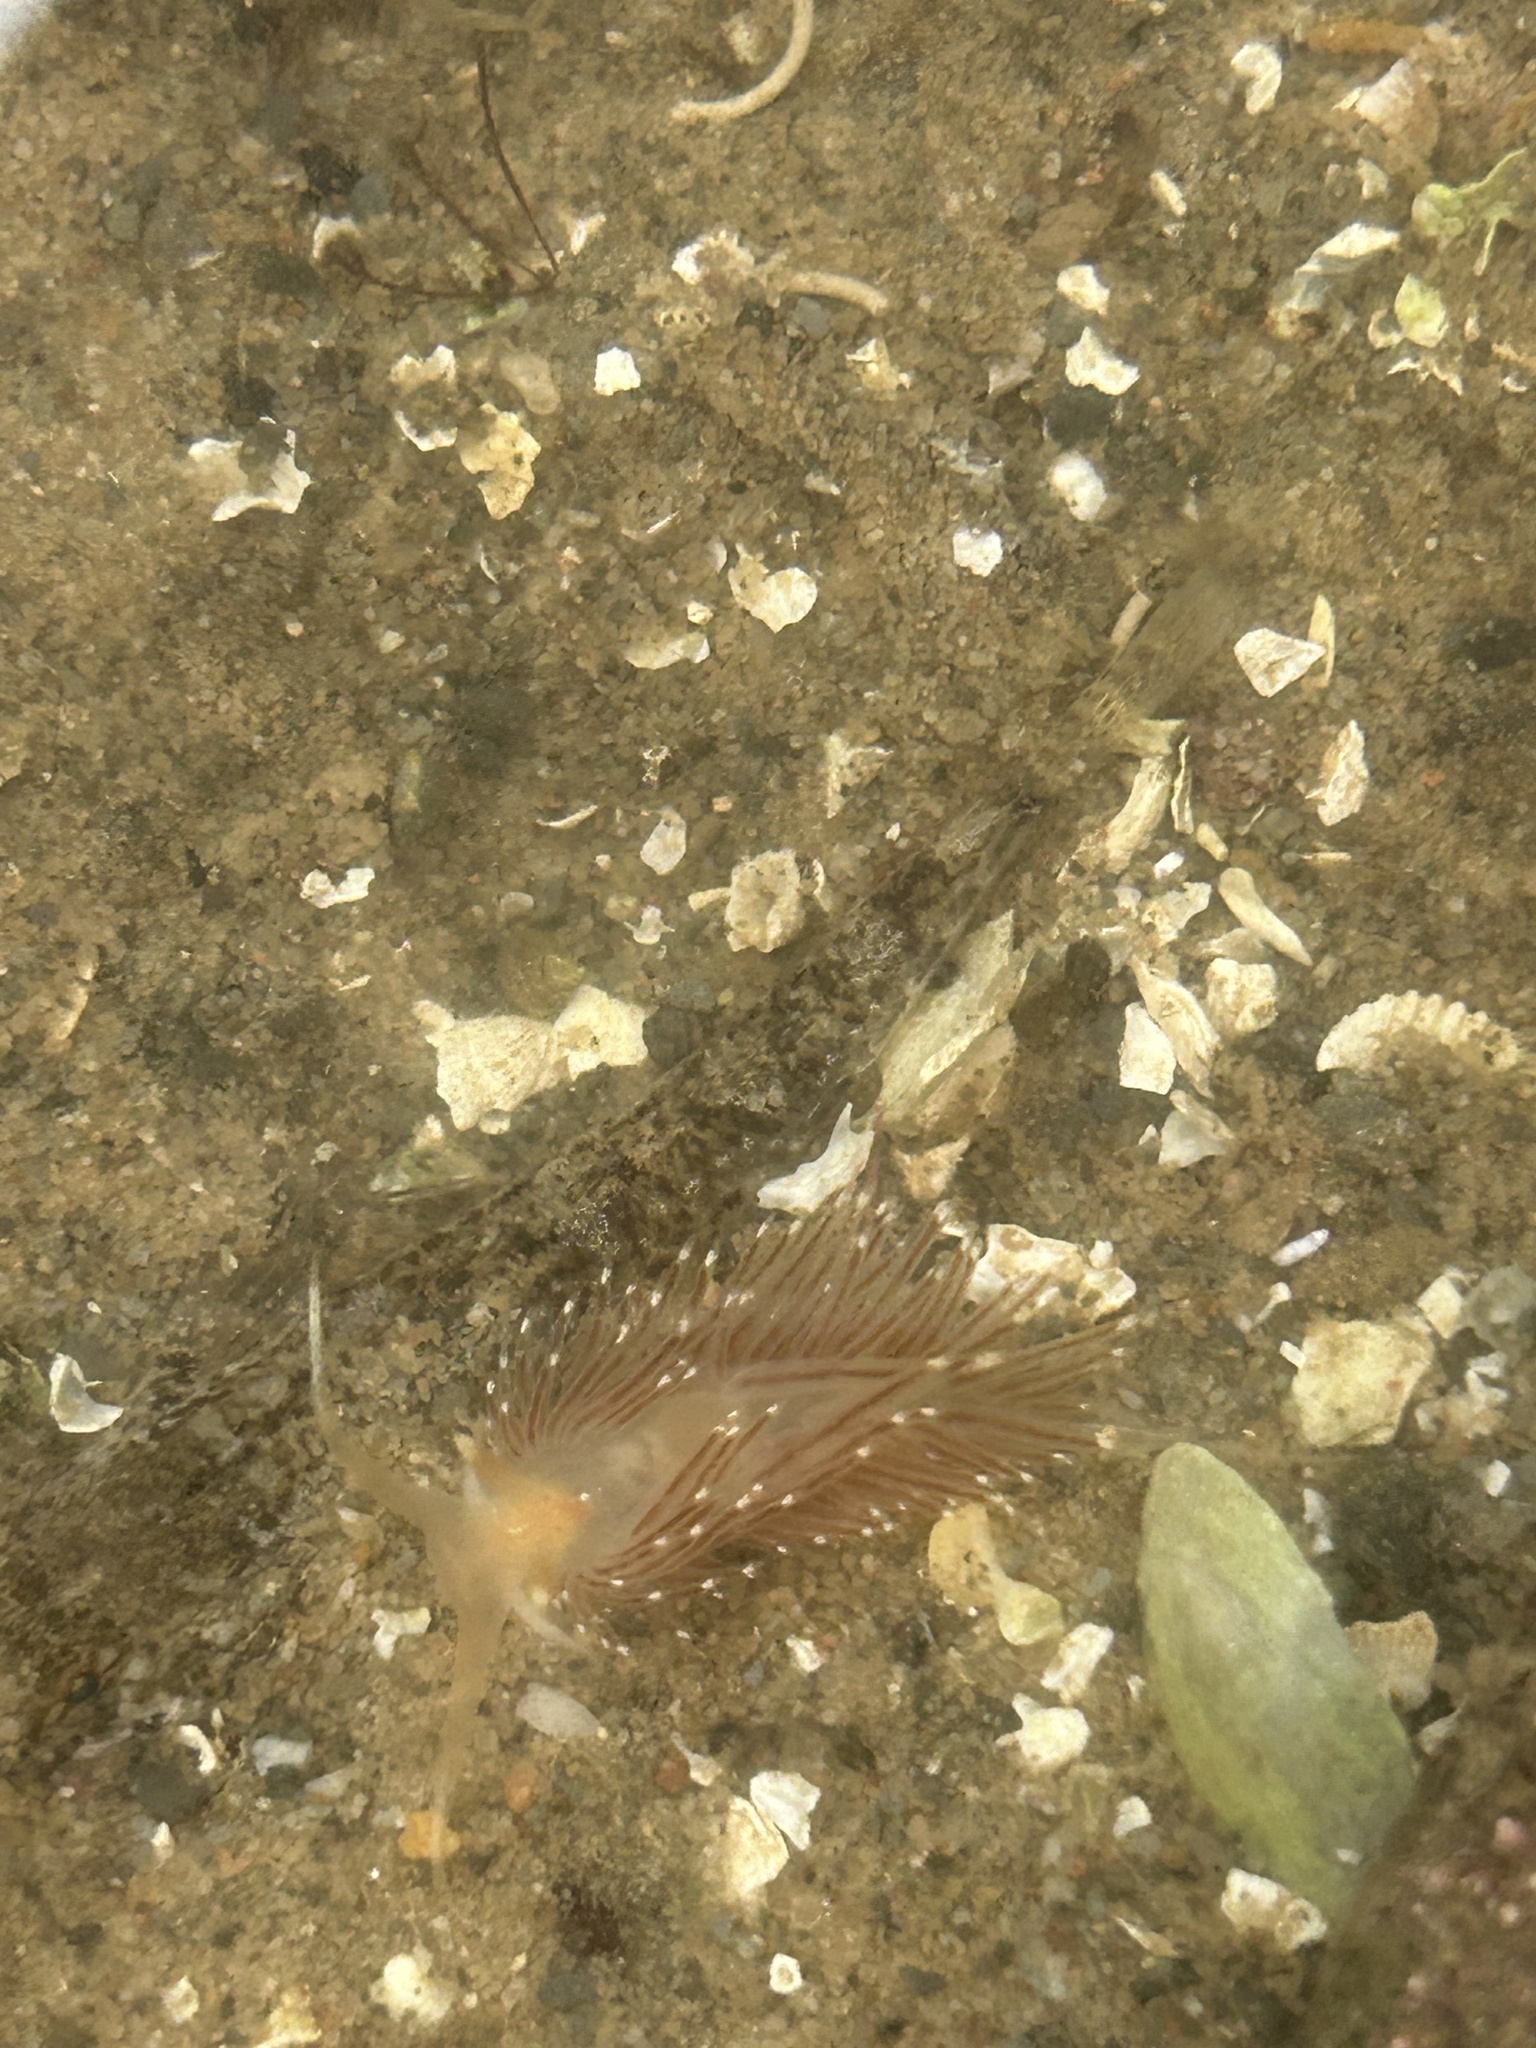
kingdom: Animalia
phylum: Mollusca
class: Gastropoda
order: Nudibranchia
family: Facelinidae
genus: Facelina
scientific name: Facelina bostoniensis
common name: Boston facelina
